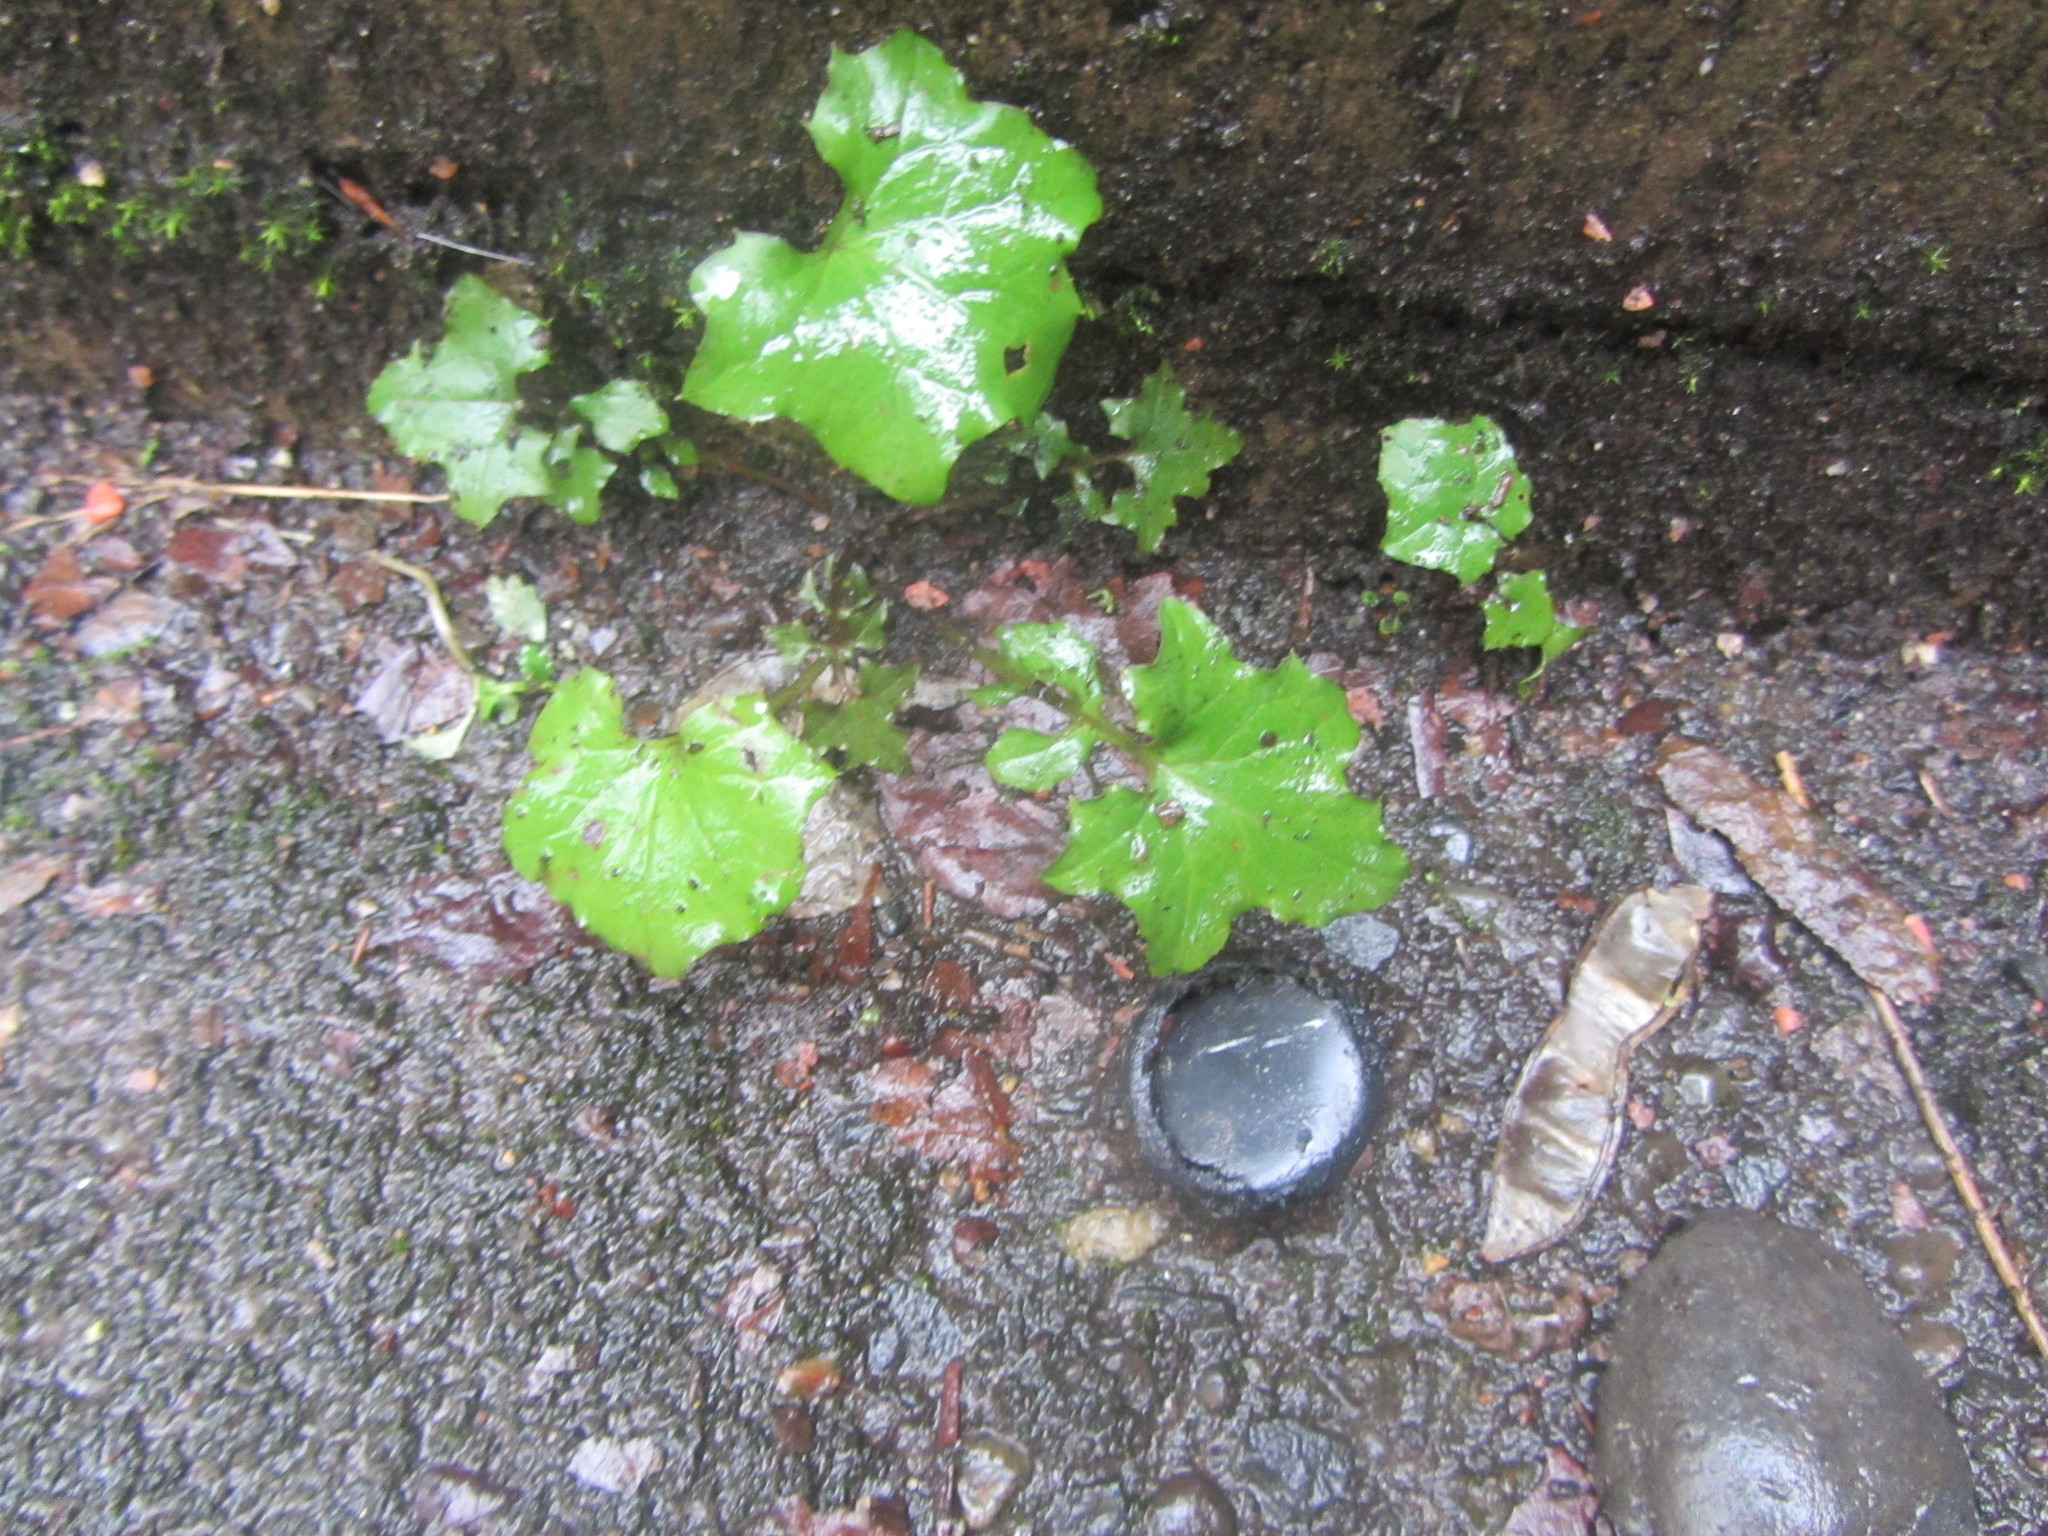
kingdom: Plantae
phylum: Tracheophyta
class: Magnoliopsida
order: Asterales
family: Asteraceae
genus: Mycelis
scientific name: Mycelis muralis
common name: Wall lettuce
